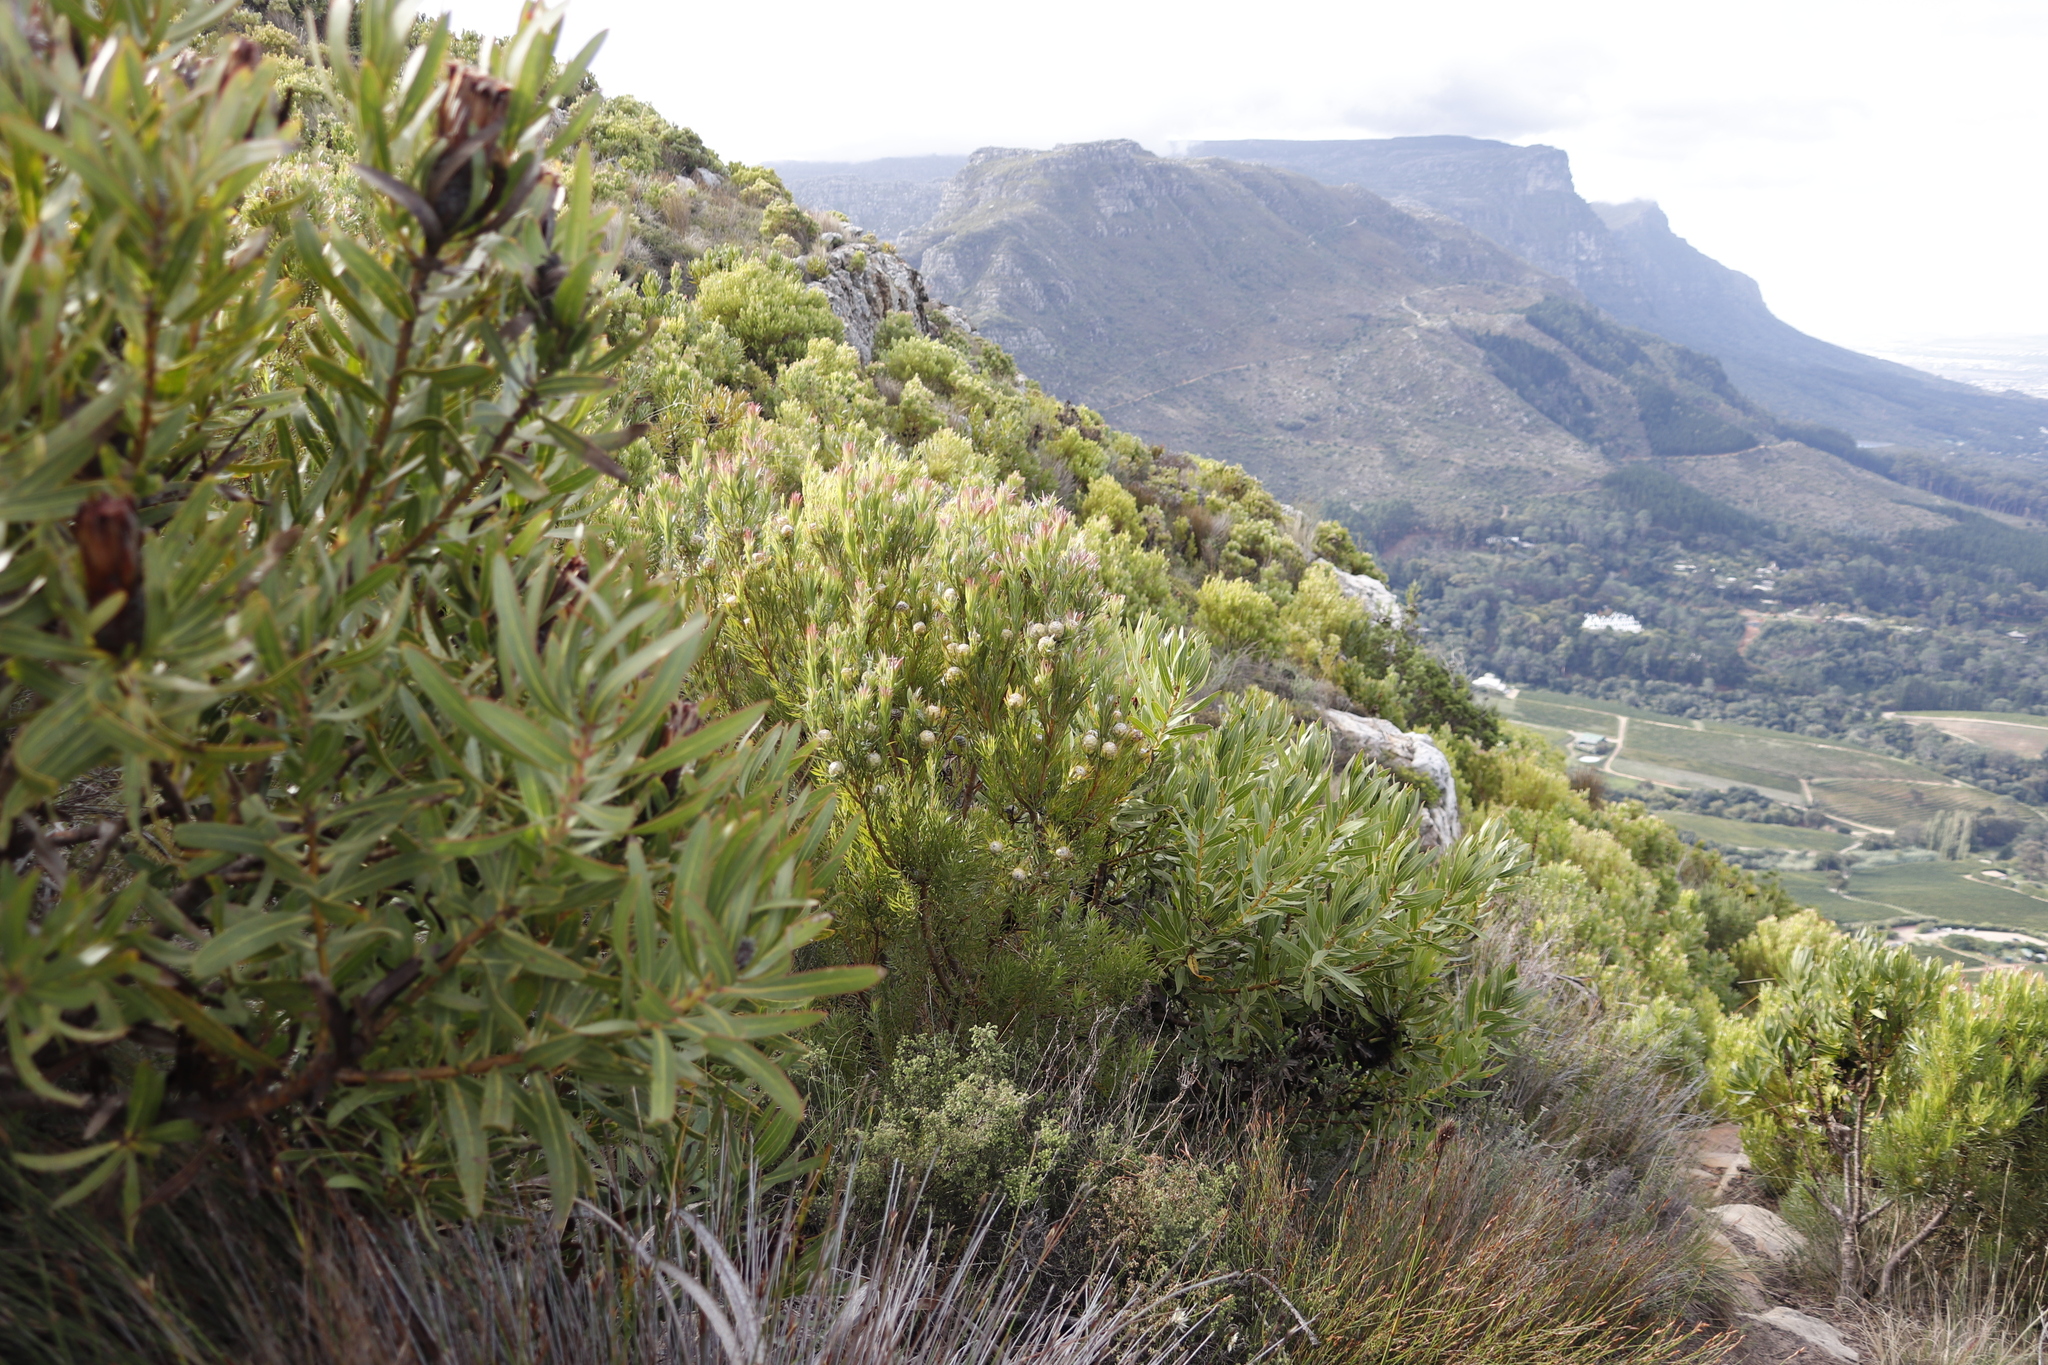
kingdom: Plantae
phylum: Tracheophyta
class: Magnoliopsida
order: Proteales
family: Proteaceae
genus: Leucadendron
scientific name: Leucadendron xanthoconus
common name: Sickle-leaf conebush
